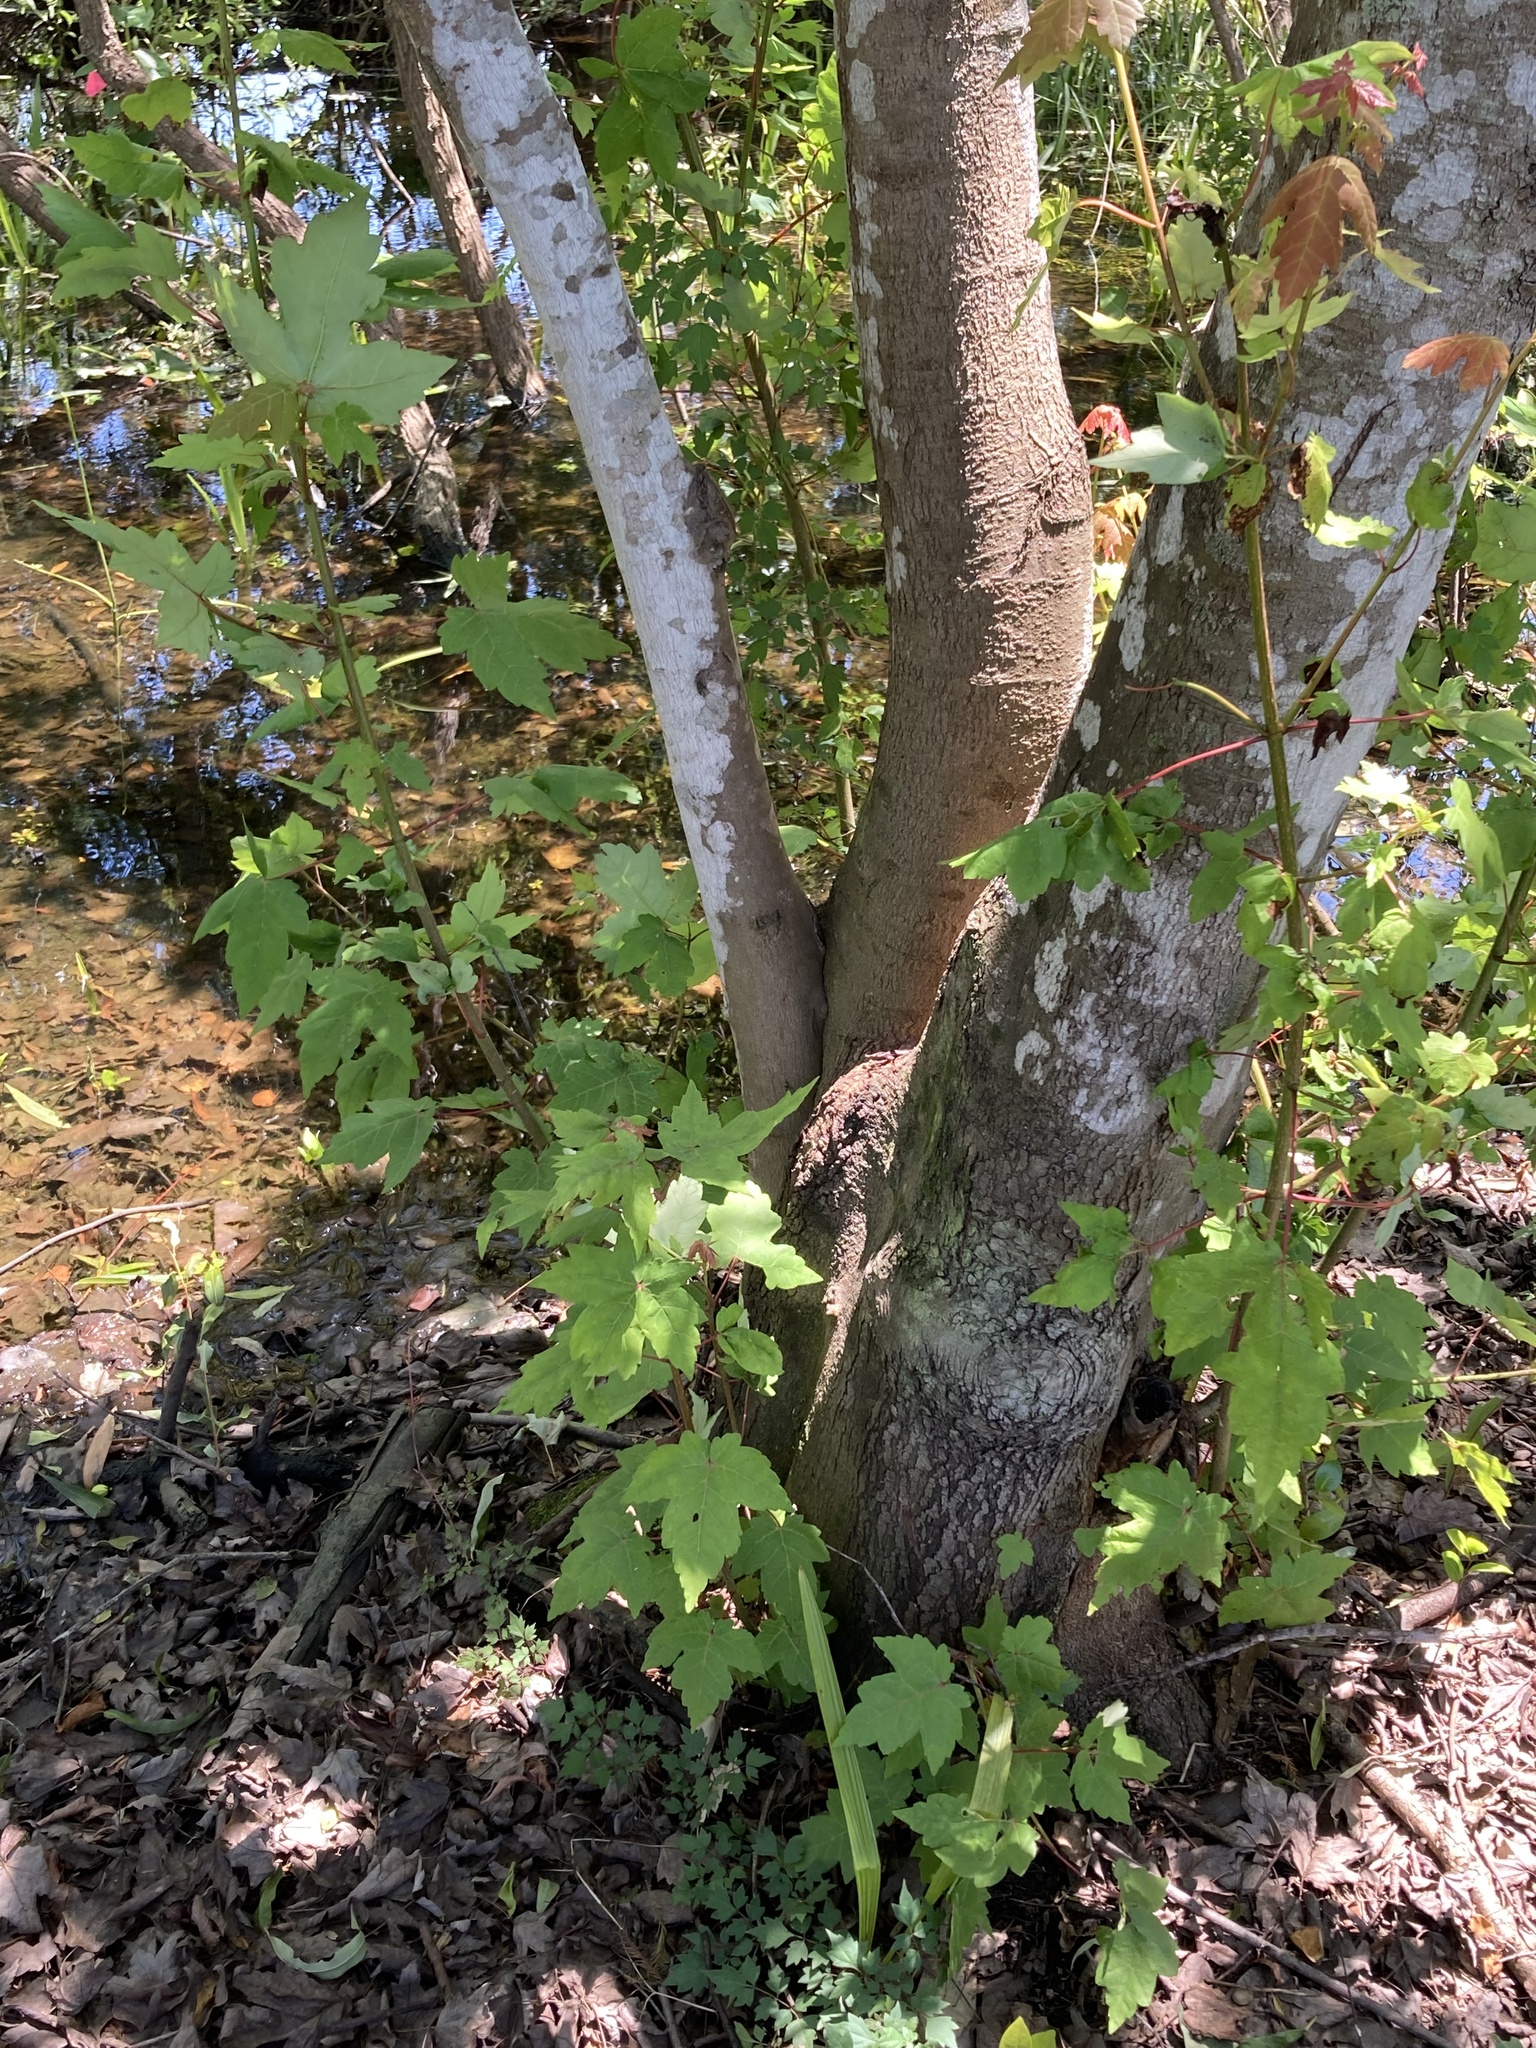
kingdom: Plantae
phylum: Tracheophyta
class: Magnoliopsida
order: Sapindales
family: Sapindaceae
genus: Acer
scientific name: Acer rubrum
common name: Red maple
